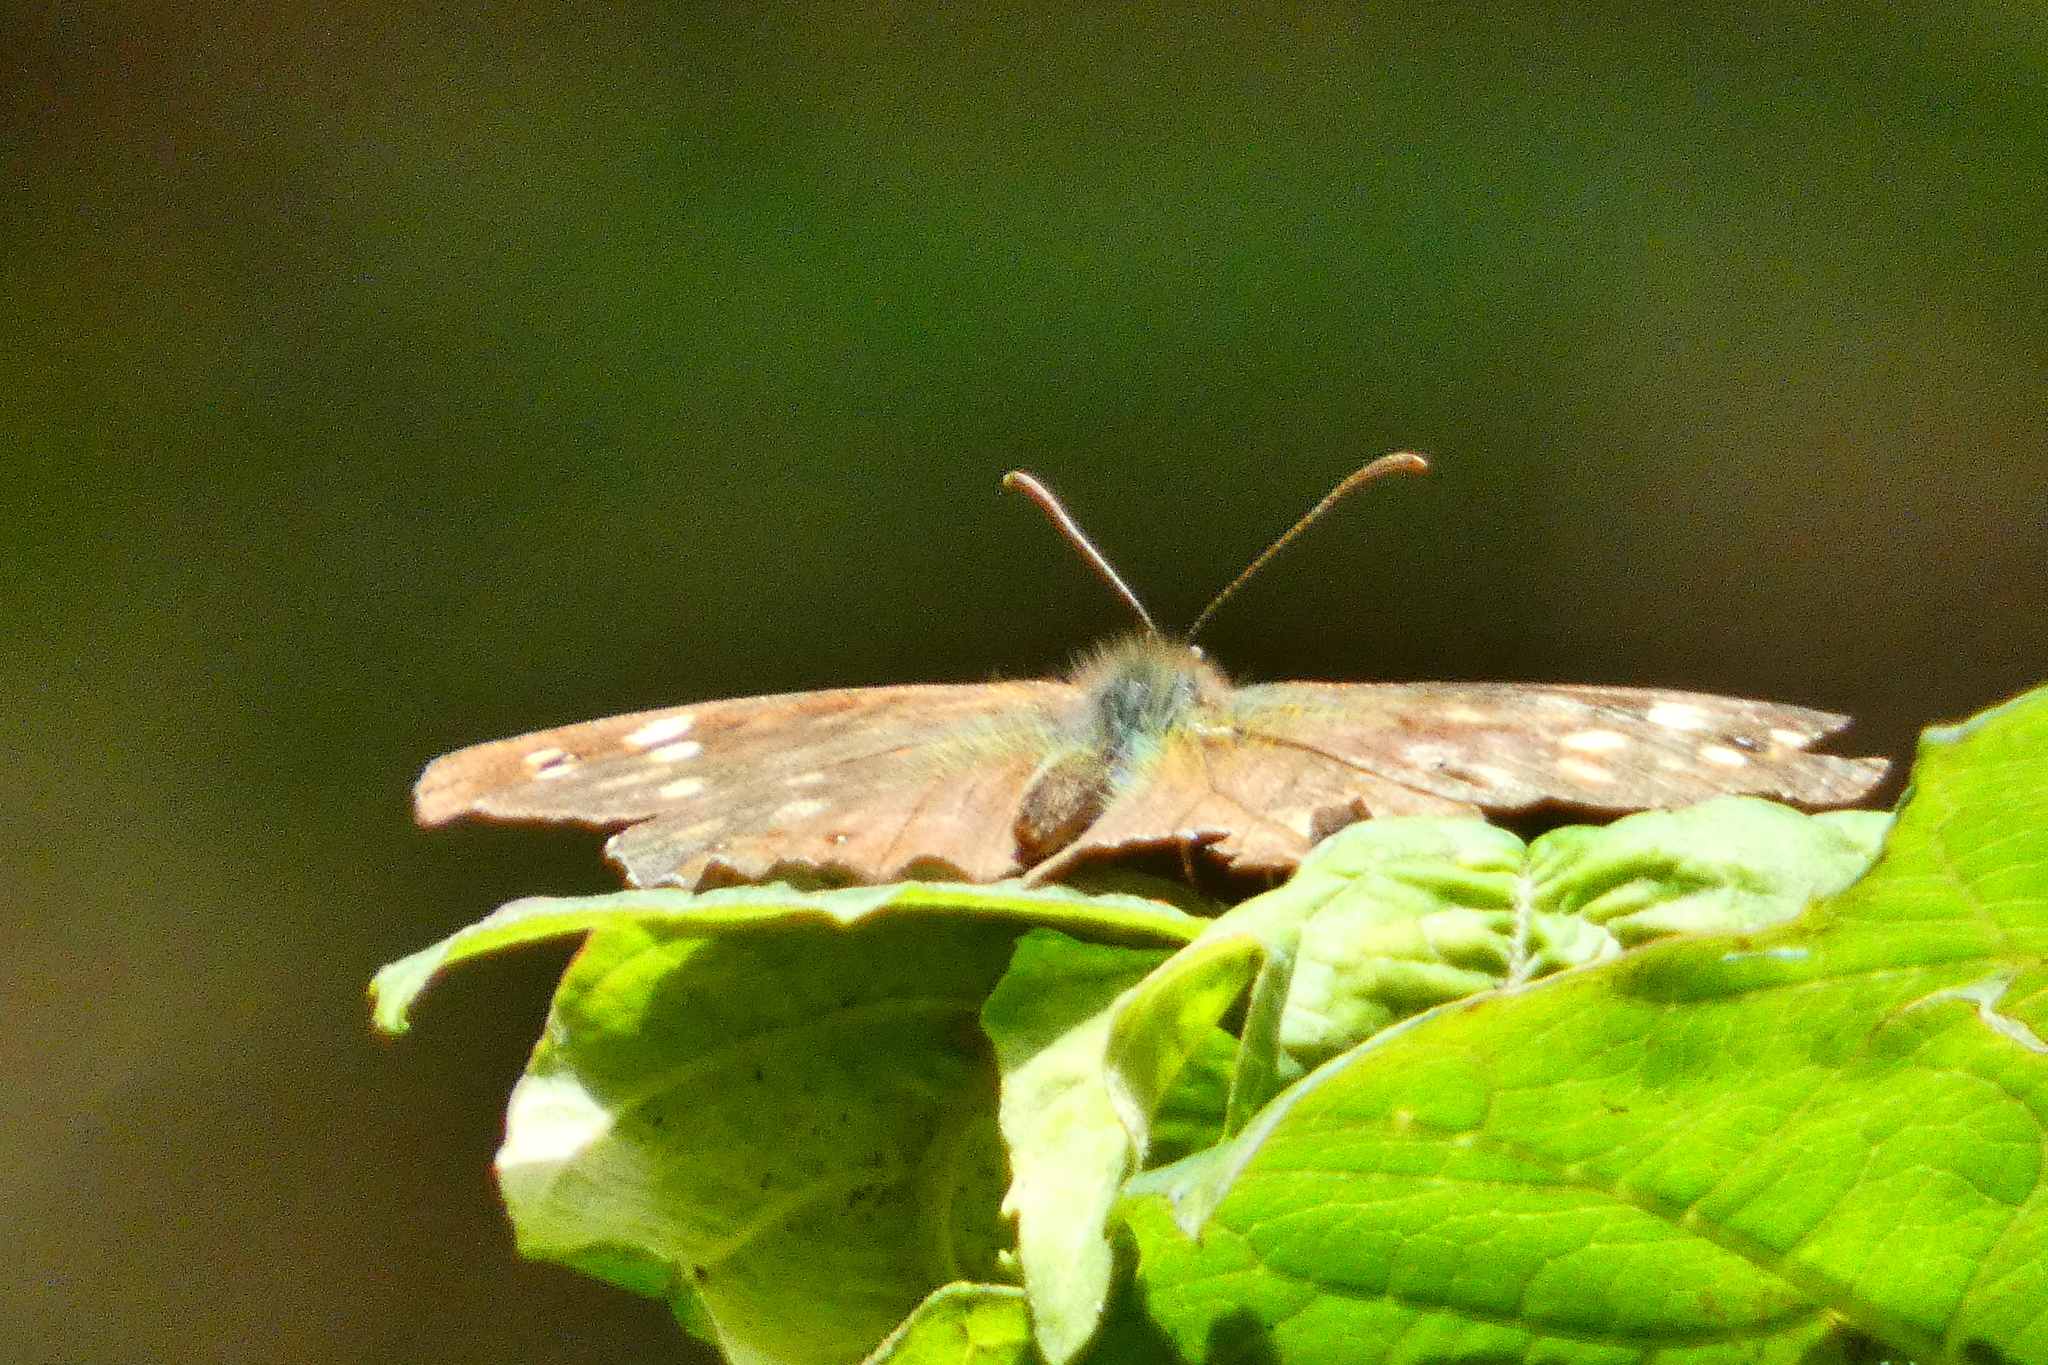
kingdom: Animalia
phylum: Arthropoda
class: Insecta
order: Lepidoptera
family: Nymphalidae
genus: Pararge
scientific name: Pararge aegeria
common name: Speckled wood
